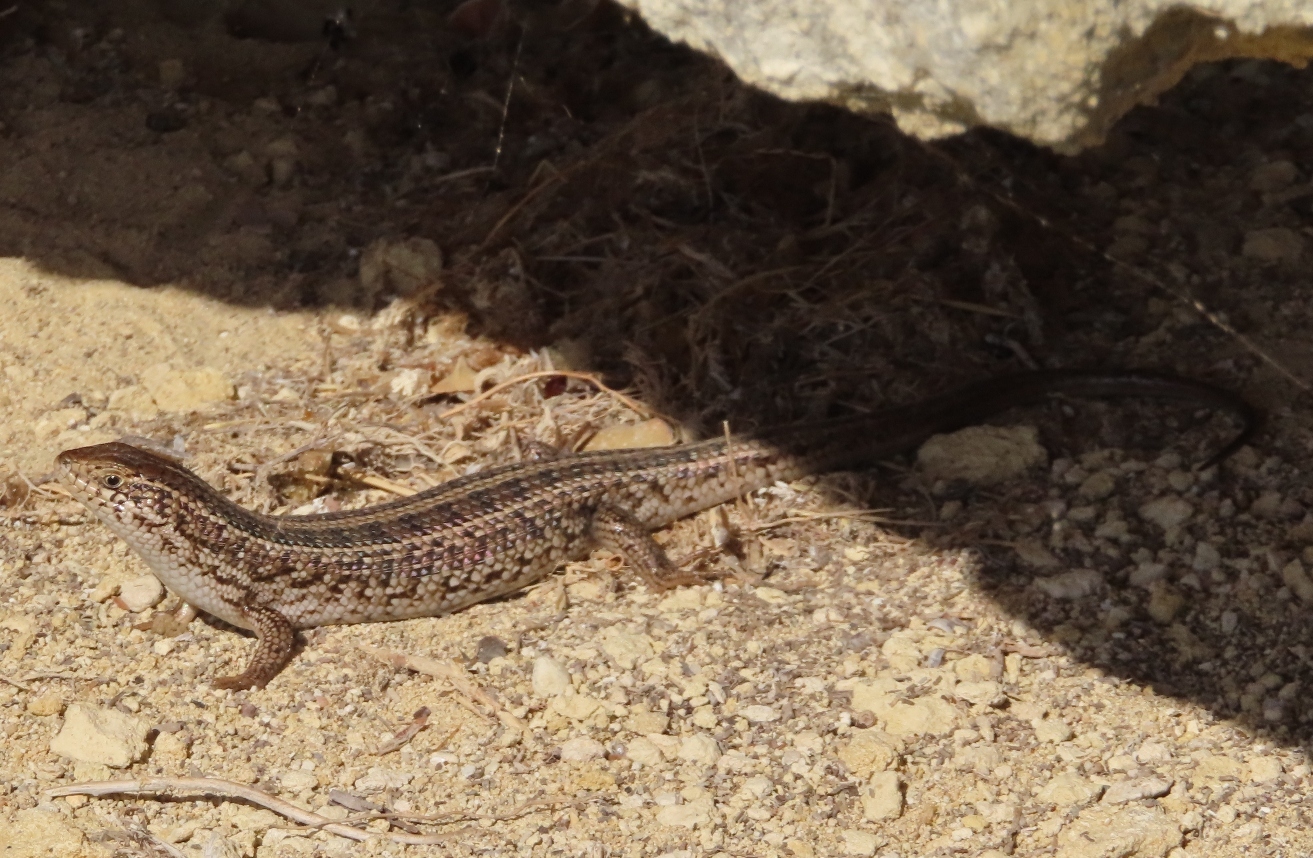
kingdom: Animalia
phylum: Chordata
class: Squamata
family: Scincidae
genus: Trachylepis
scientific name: Trachylepis capensis
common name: Cape skink
